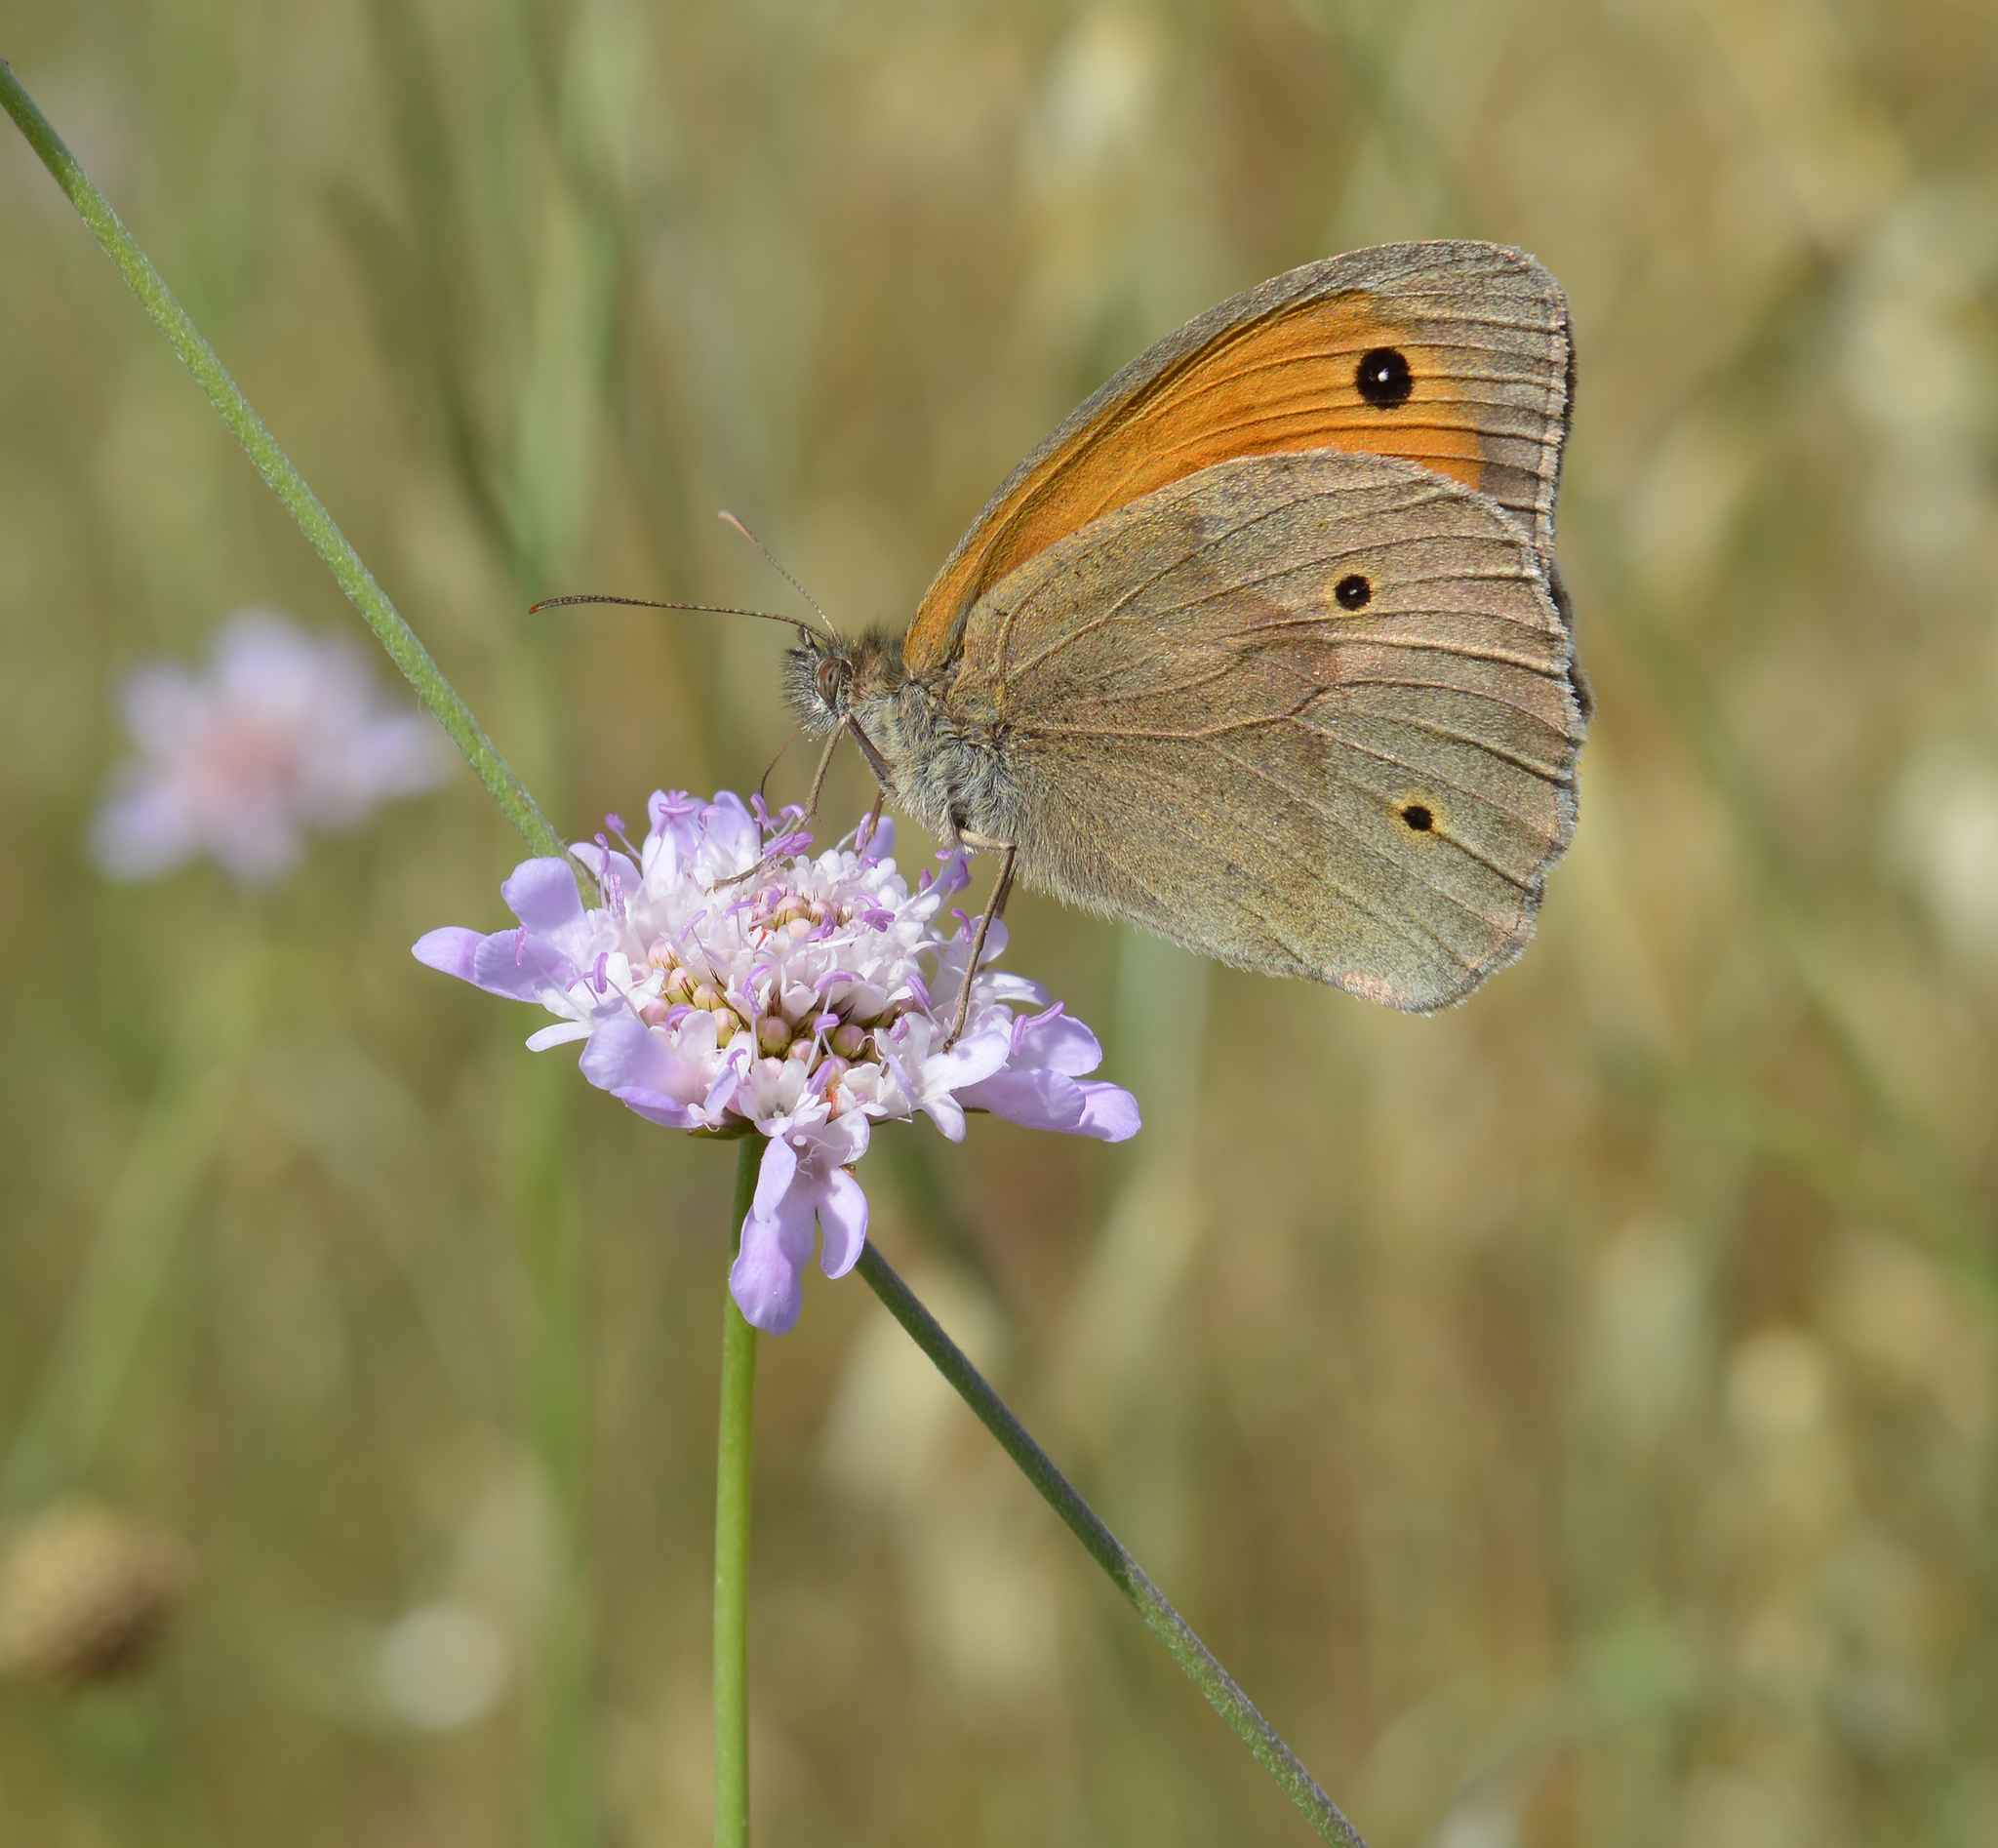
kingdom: Animalia
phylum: Arthropoda
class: Insecta
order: Lepidoptera
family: Nymphalidae
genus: Maniola
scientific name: Maniola jurtina
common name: Meadow brown
